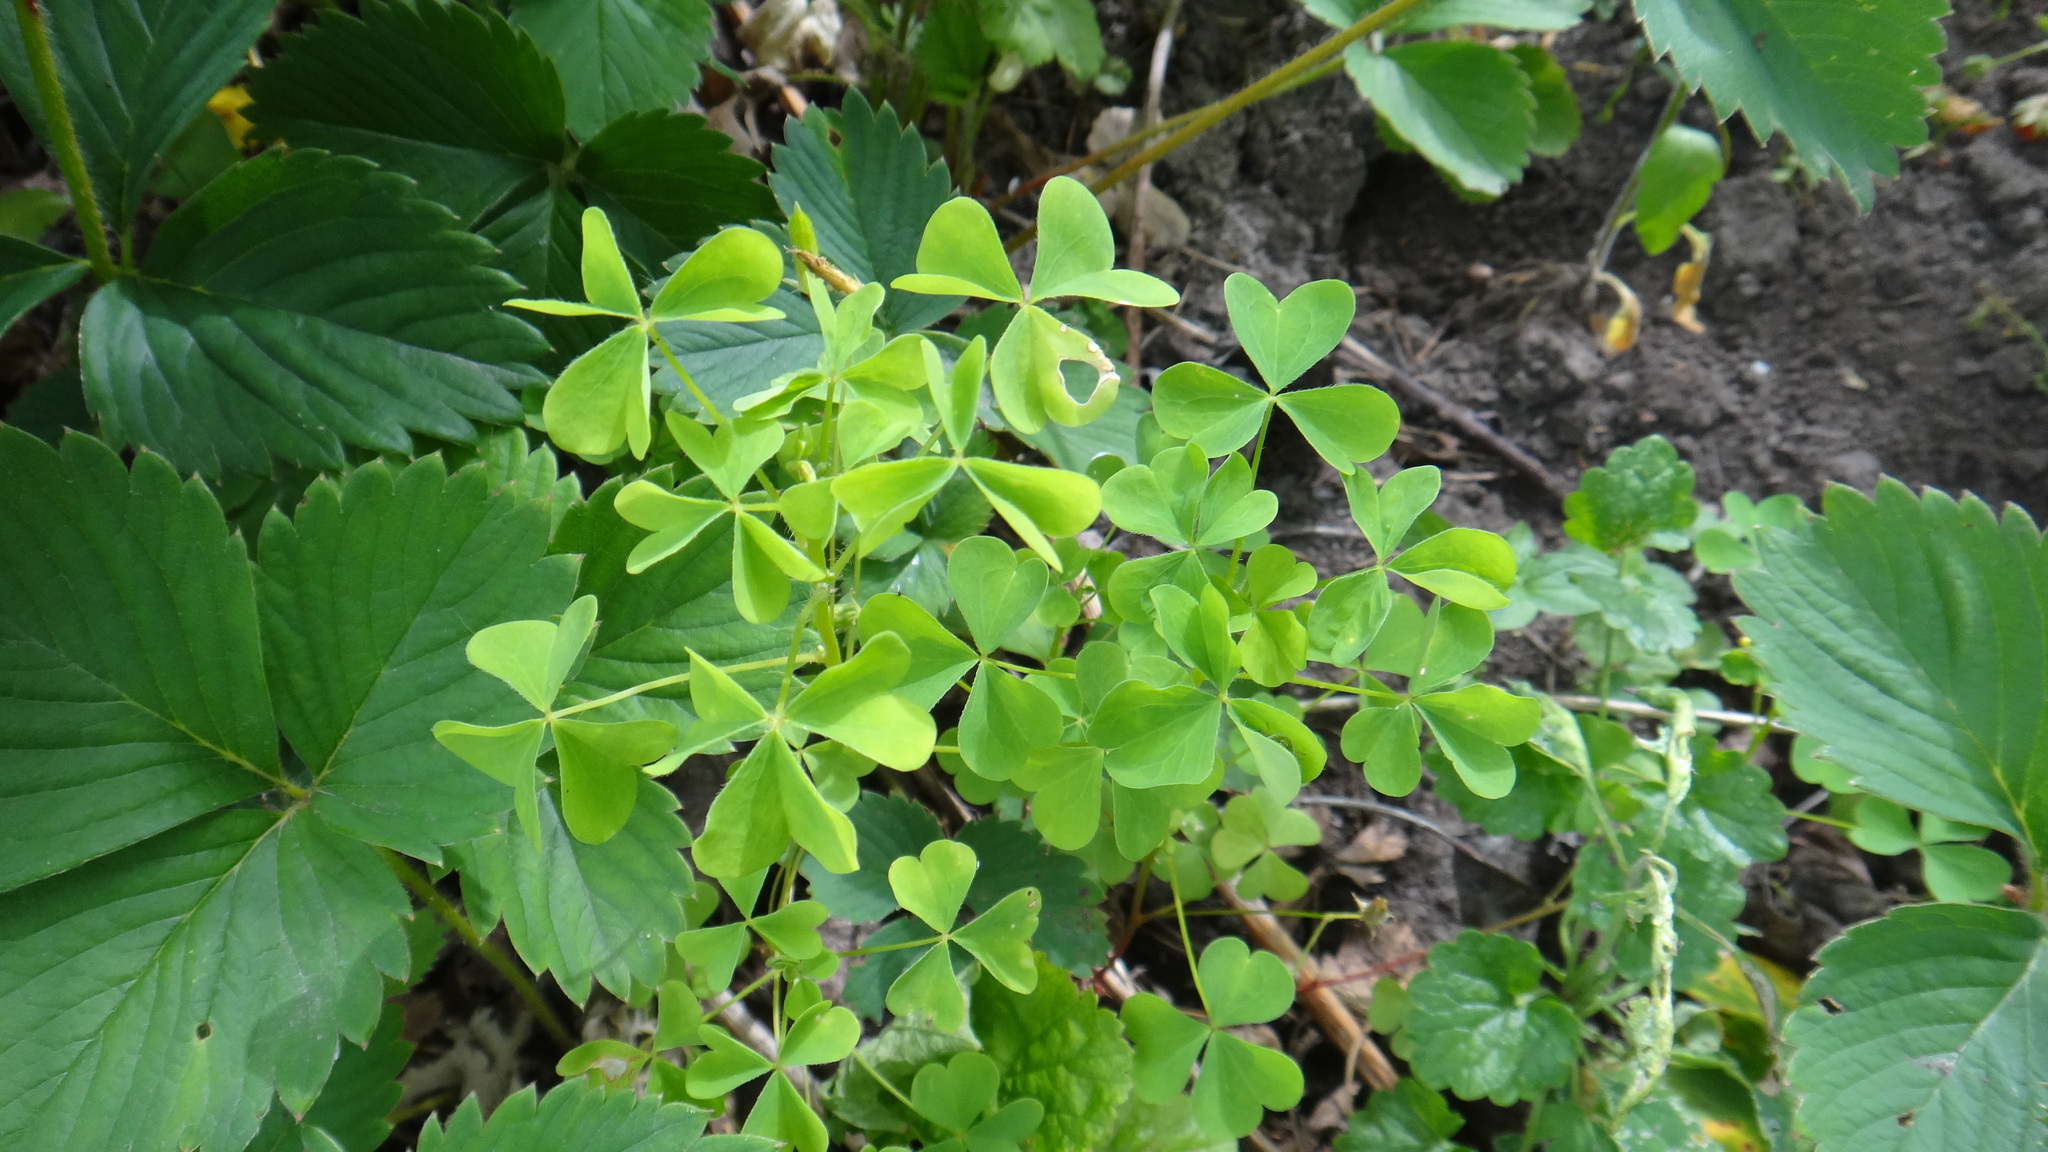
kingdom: Plantae
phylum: Tracheophyta
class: Magnoliopsida
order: Oxalidales
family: Oxalidaceae
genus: Oxalis
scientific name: Oxalis stricta
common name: Upright yellow-sorrel
